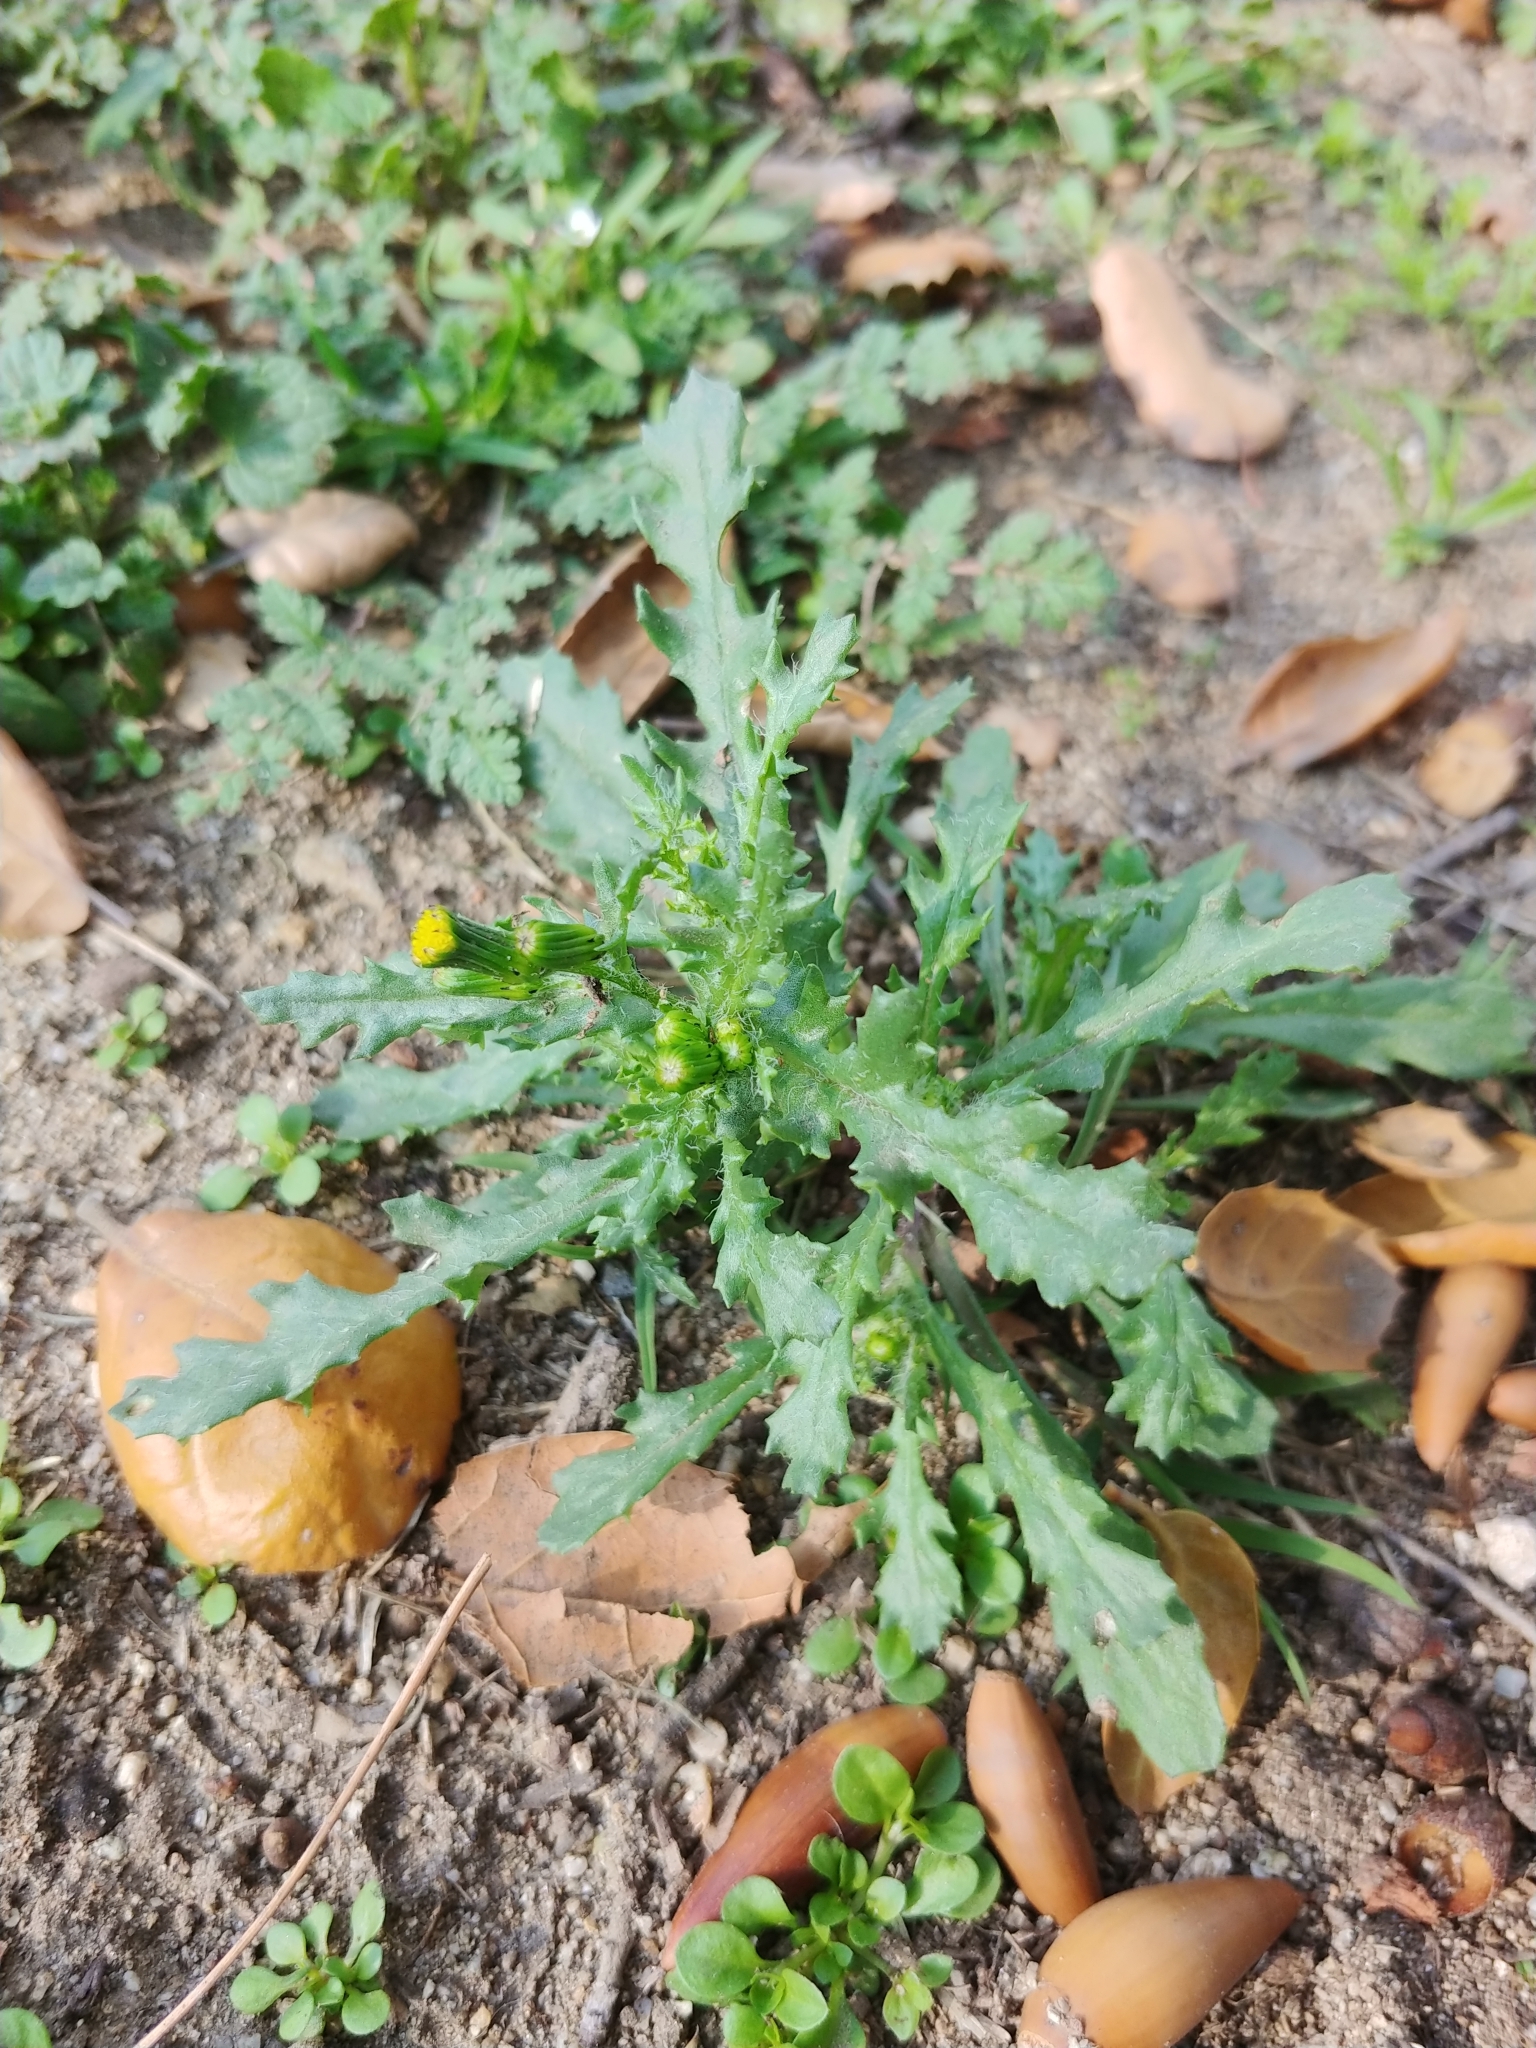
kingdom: Plantae
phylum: Tracheophyta
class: Magnoliopsida
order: Asterales
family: Asteraceae
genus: Senecio
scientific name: Senecio vulgaris
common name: Old-man-in-the-spring
